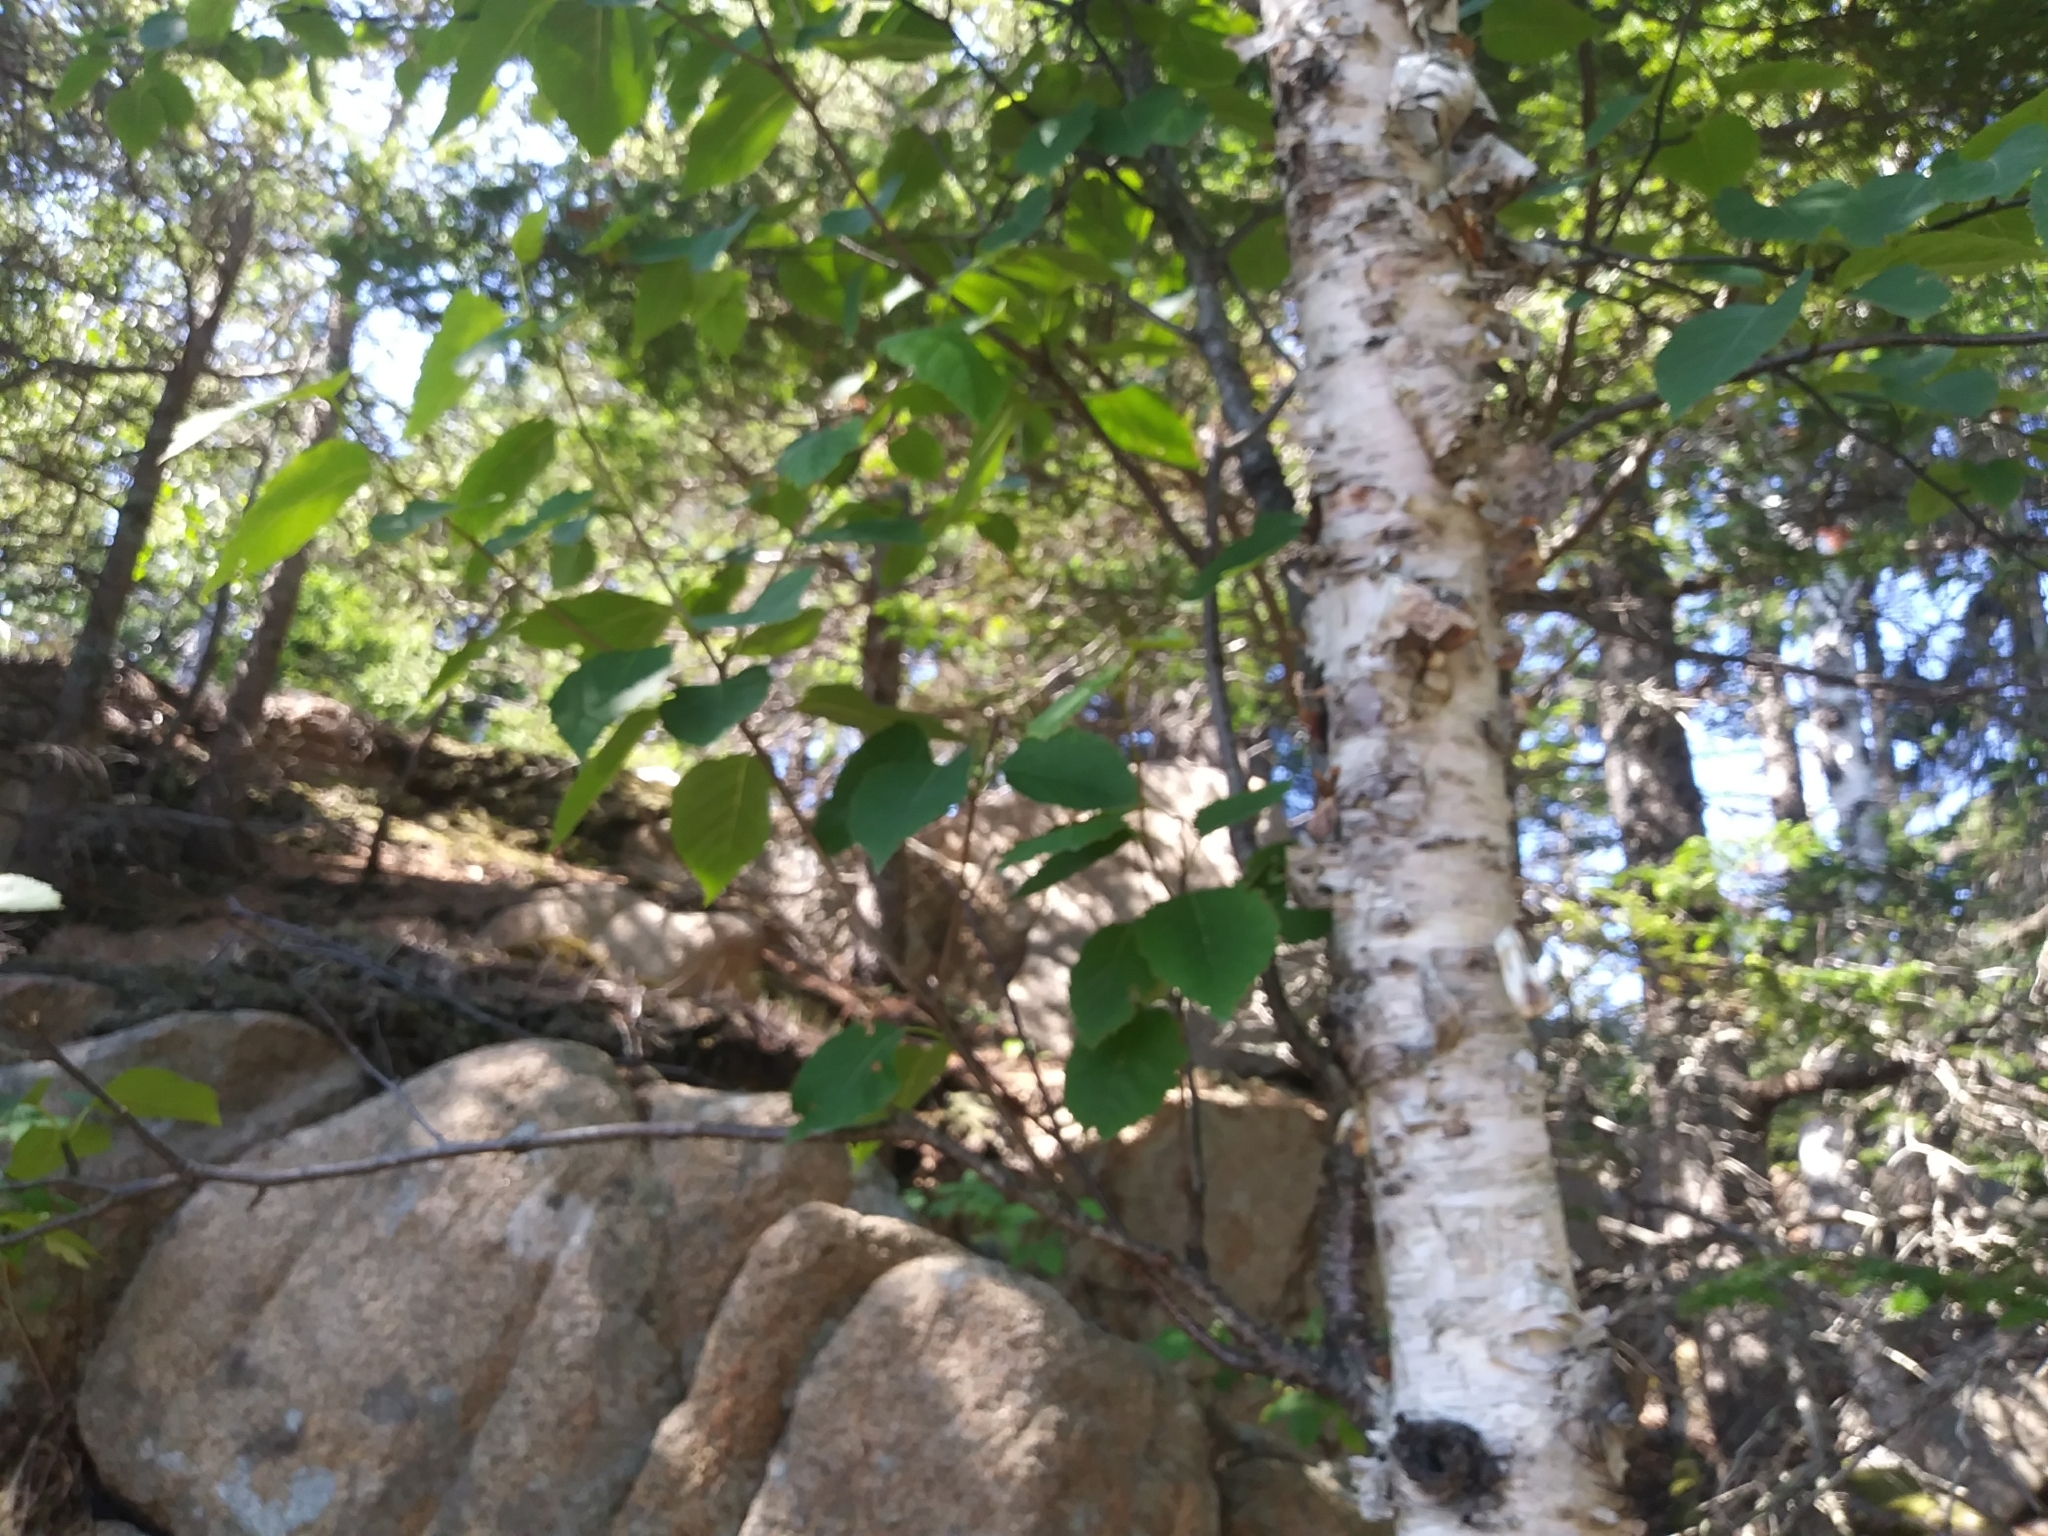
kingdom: Plantae
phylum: Tracheophyta
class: Magnoliopsida
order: Fagales
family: Betulaceae
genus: Betula
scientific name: Betula papyrifera
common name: Paper birch
